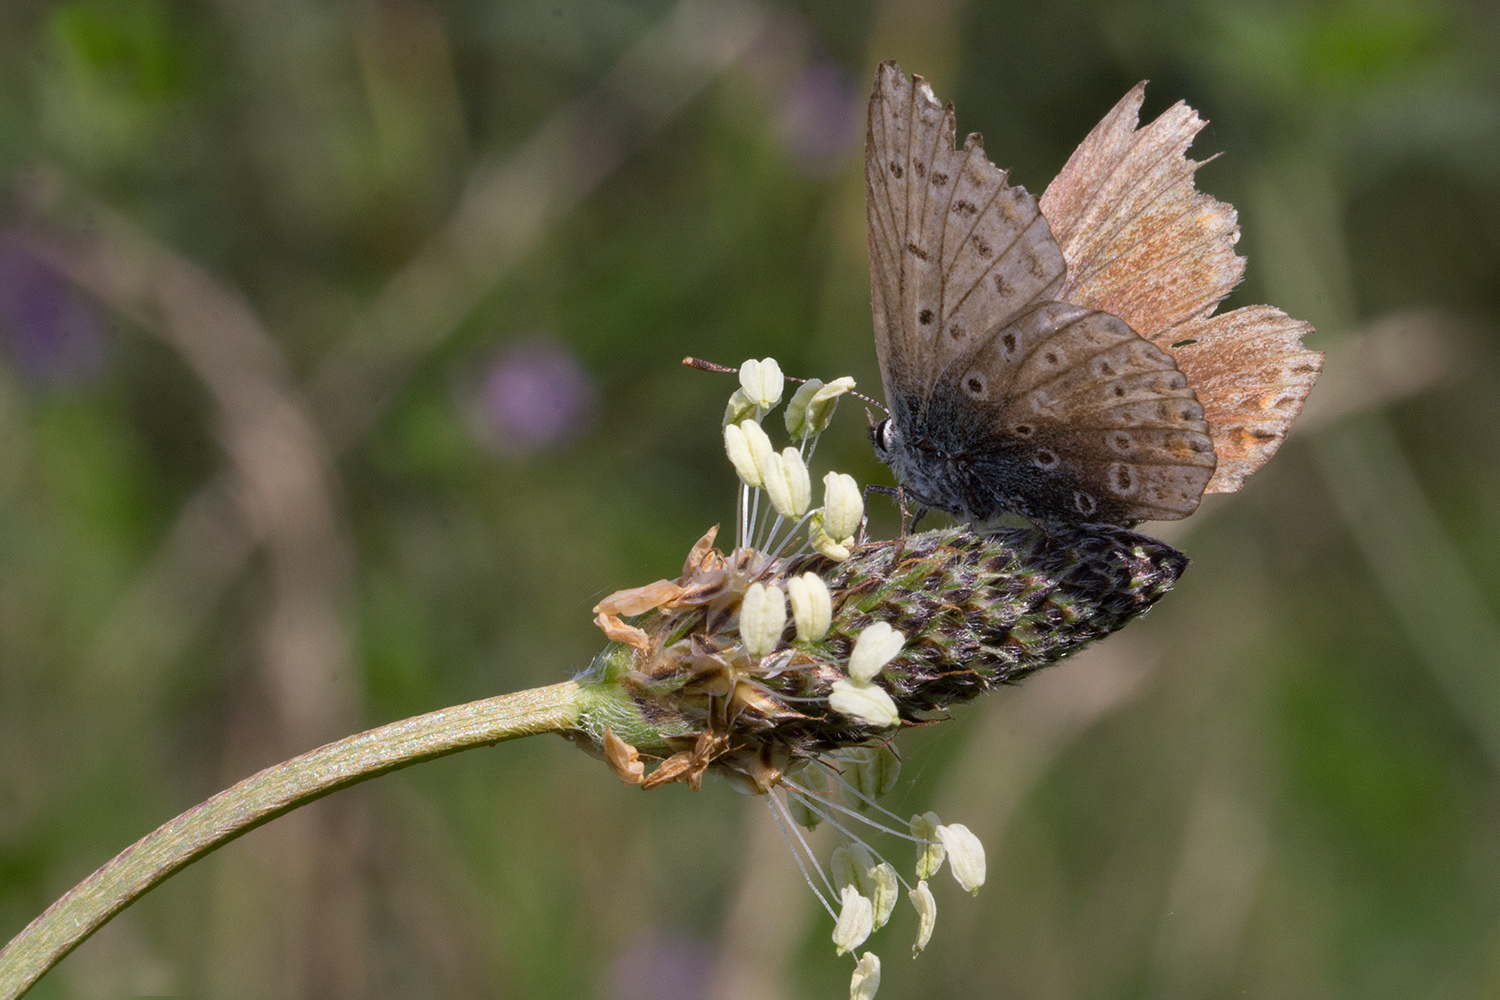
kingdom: Animalia
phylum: Arthropoda
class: Insecta
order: Lepidoptera
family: Lycaenidae
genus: Polyommatus
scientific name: Polyommatus icarus
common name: Common blue
